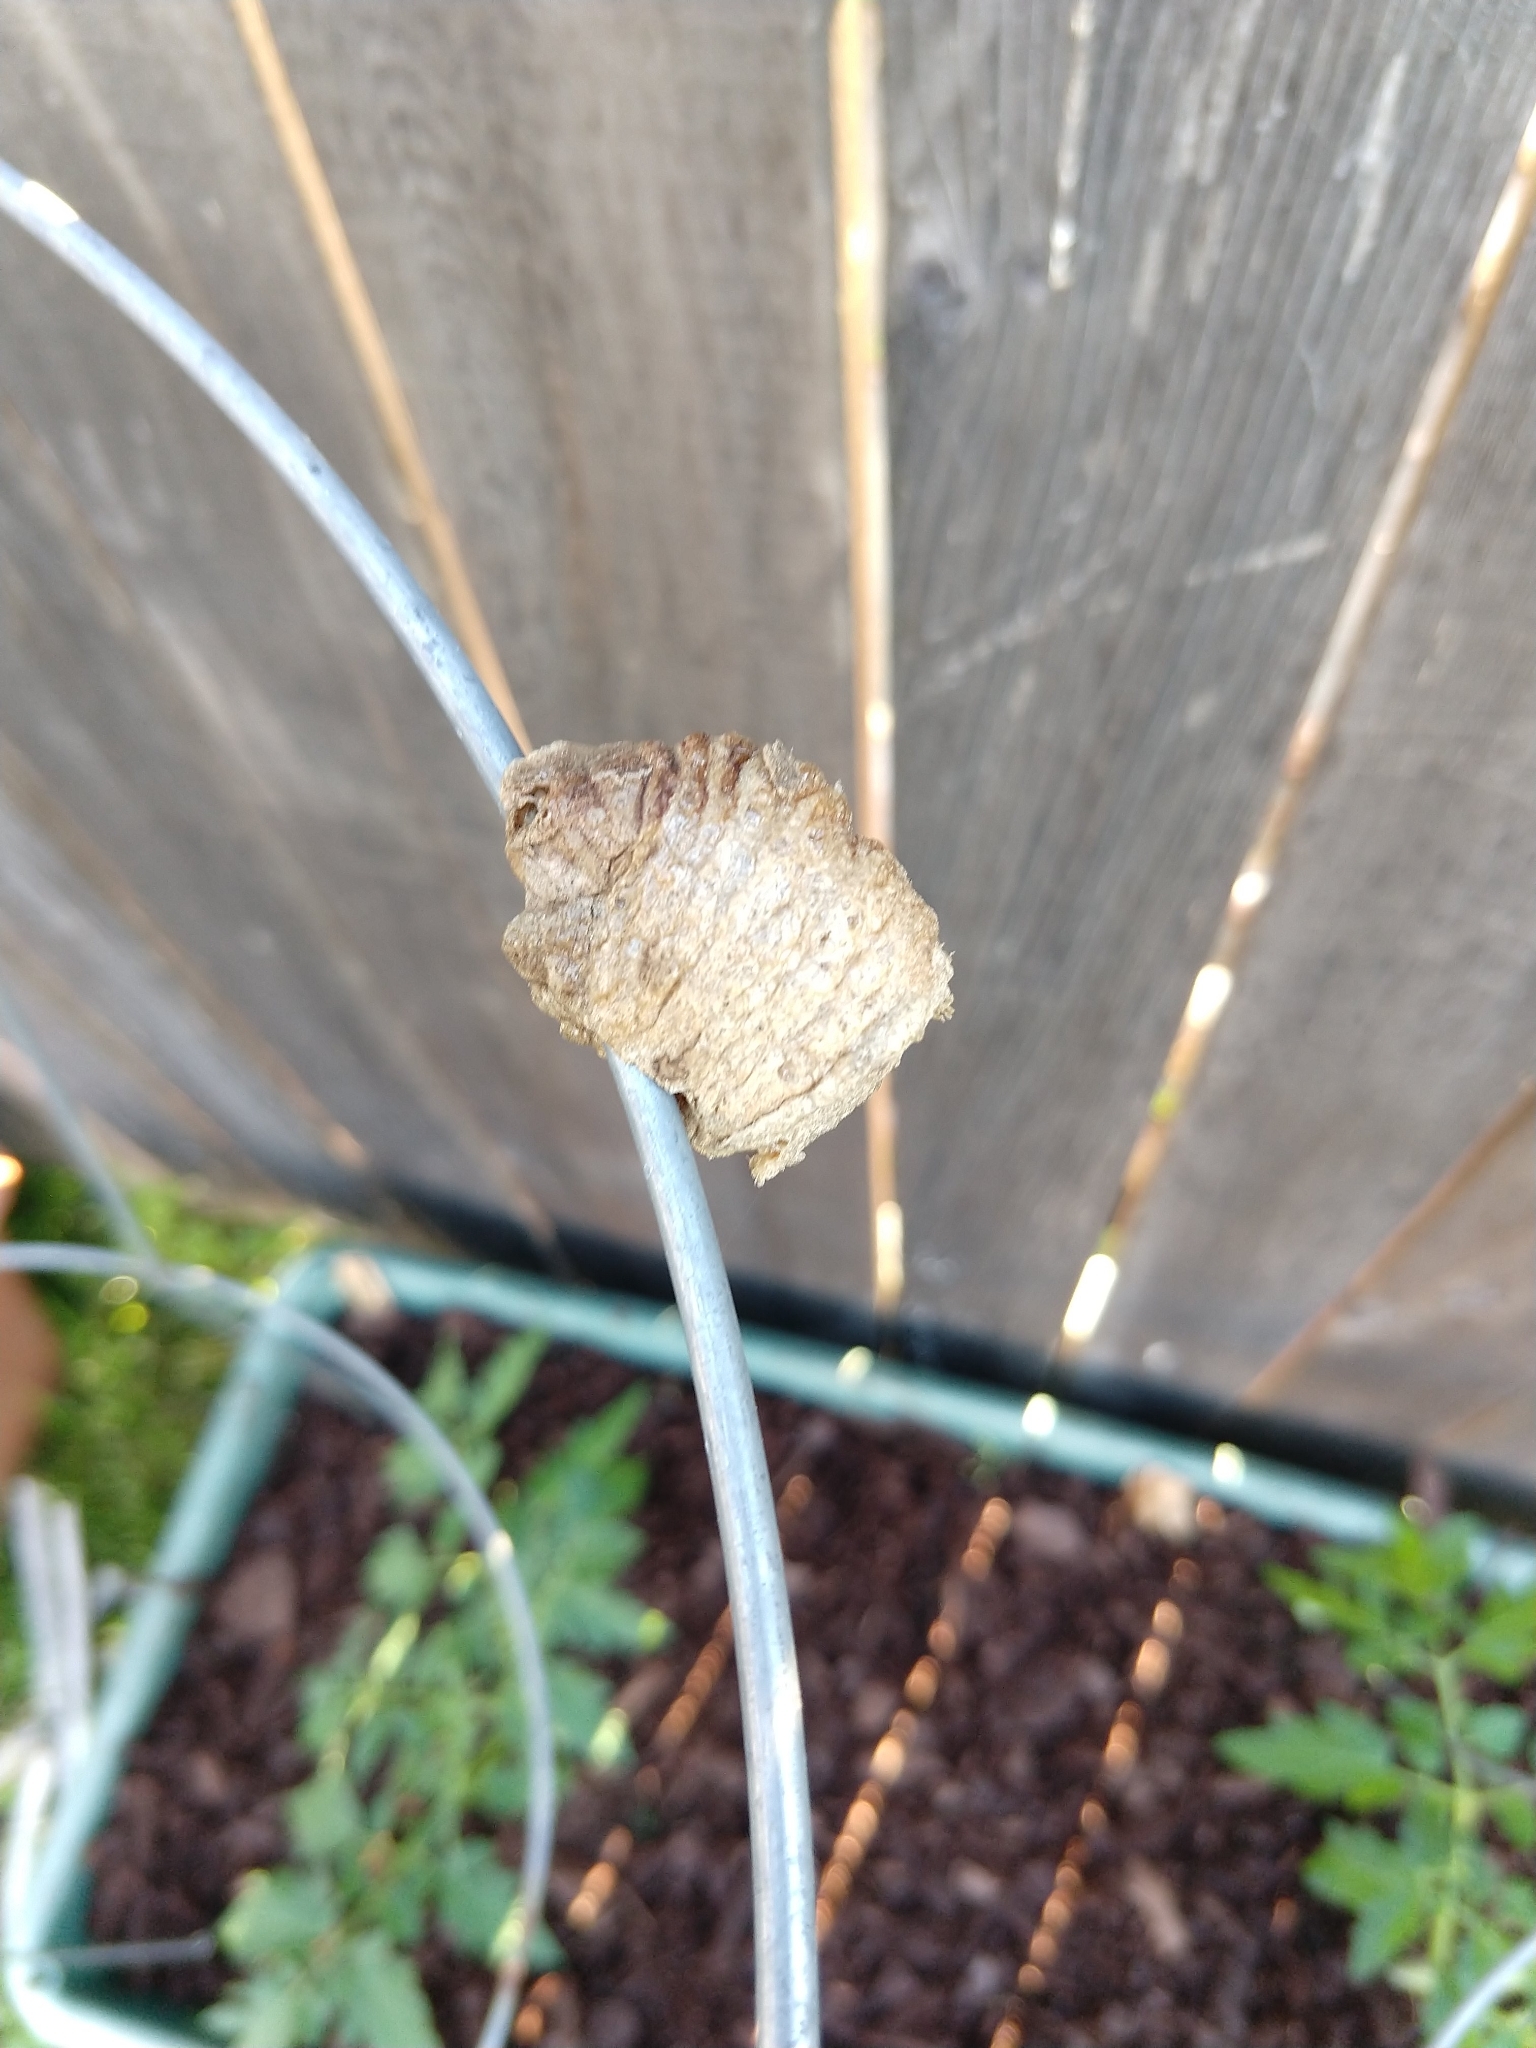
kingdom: Animalia
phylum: Arthropoda
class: Insecta
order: Mantodea
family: Mantidae
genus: Tenodera
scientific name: Tenodera sinensis
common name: Chinese mantis
